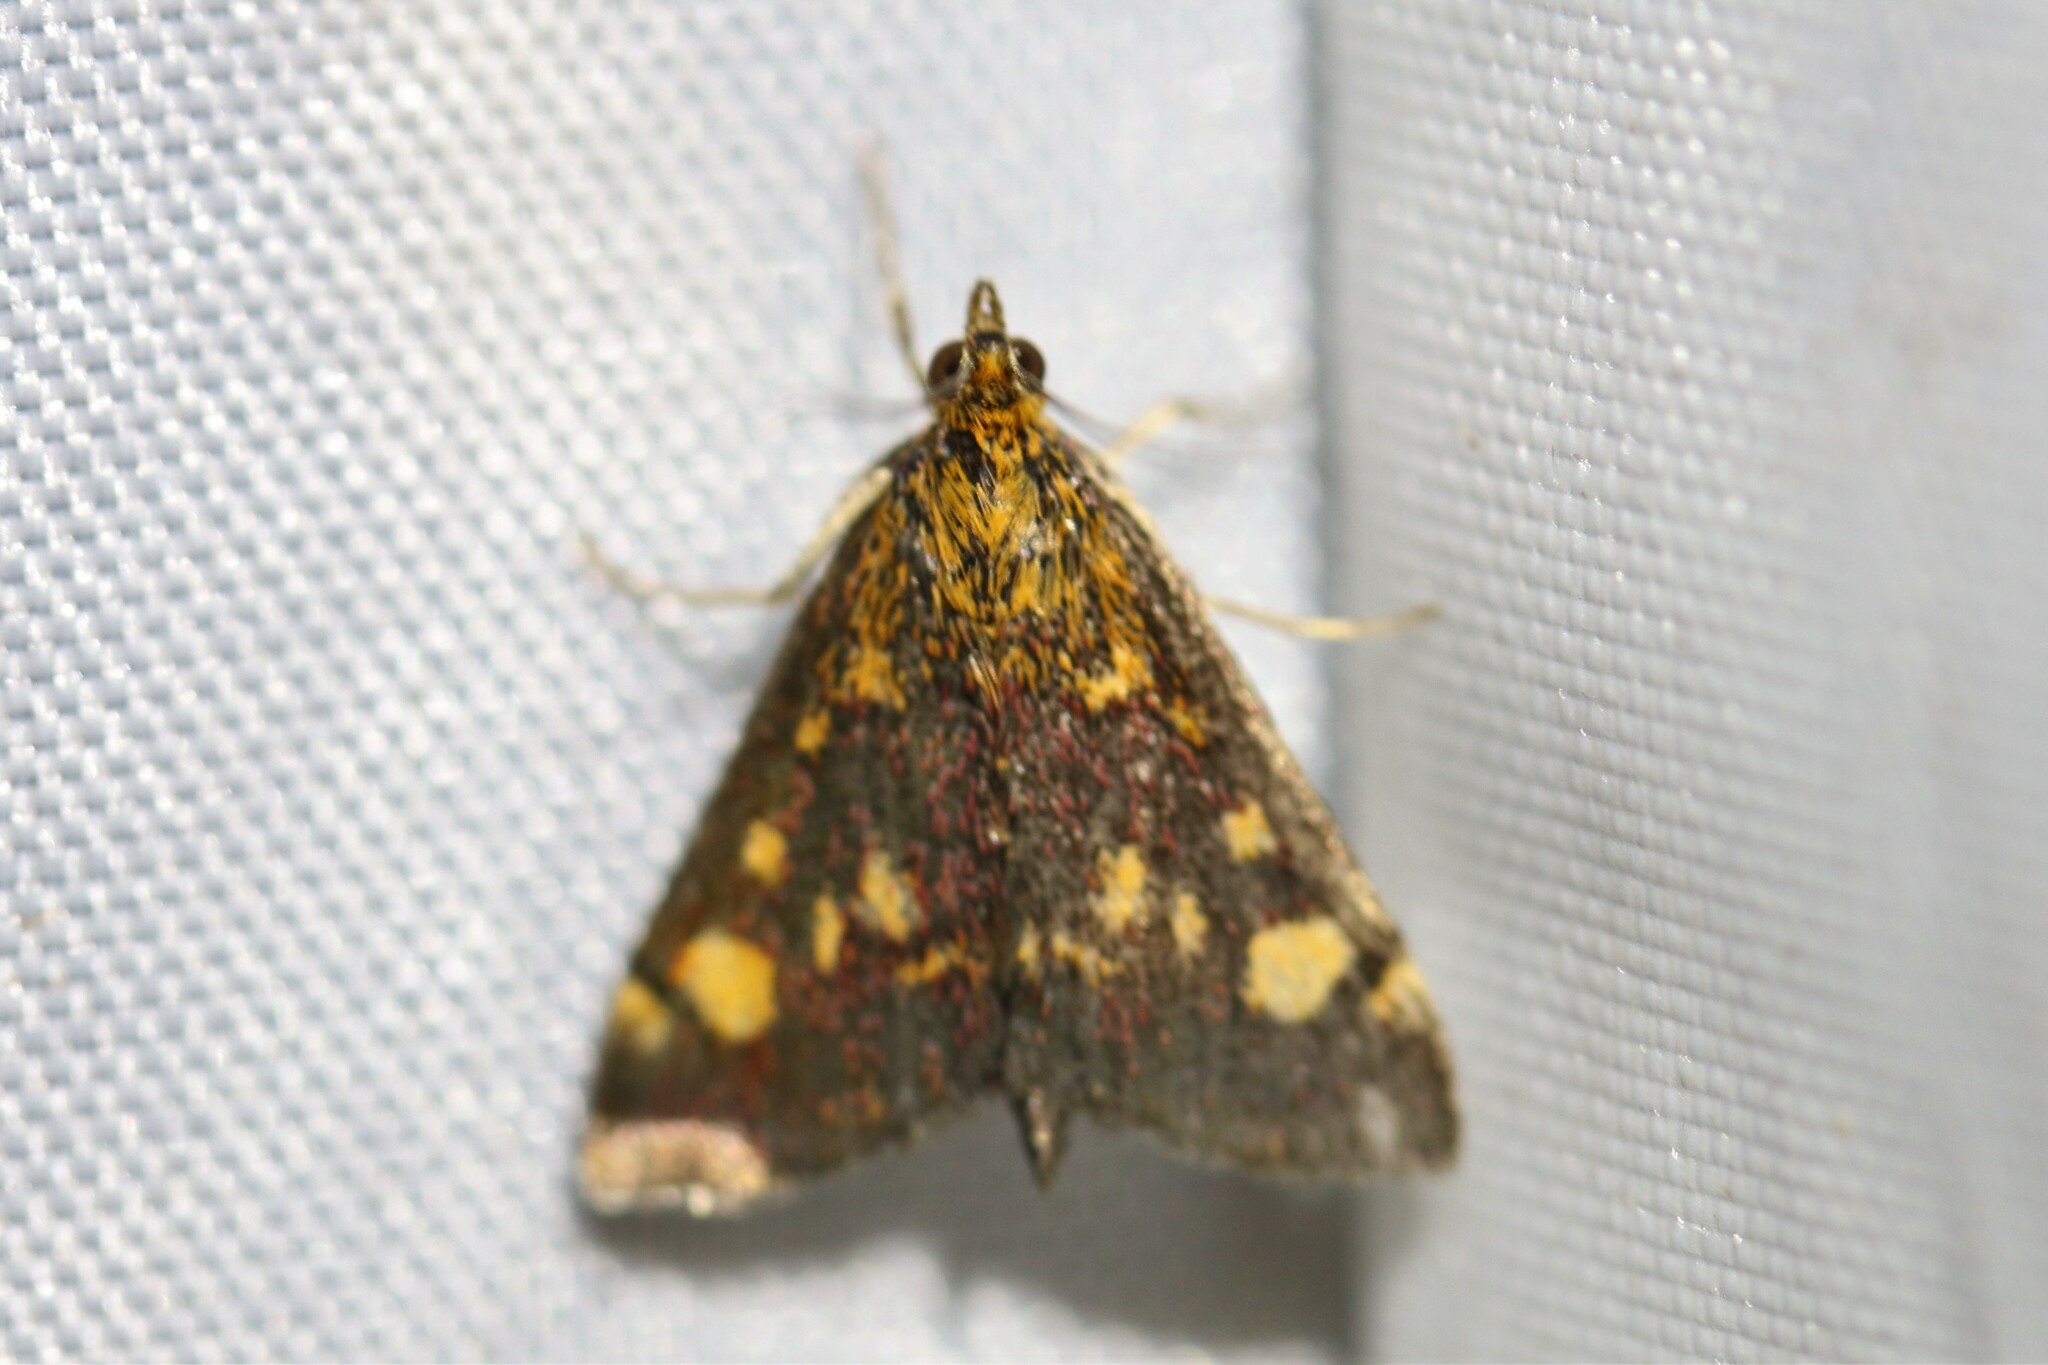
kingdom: Animalia
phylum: Arthropoda
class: Insecta
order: Lepidoptera
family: Crambidae
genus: Pyrausta
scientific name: Pyrausta aurata
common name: Small purple & gold
